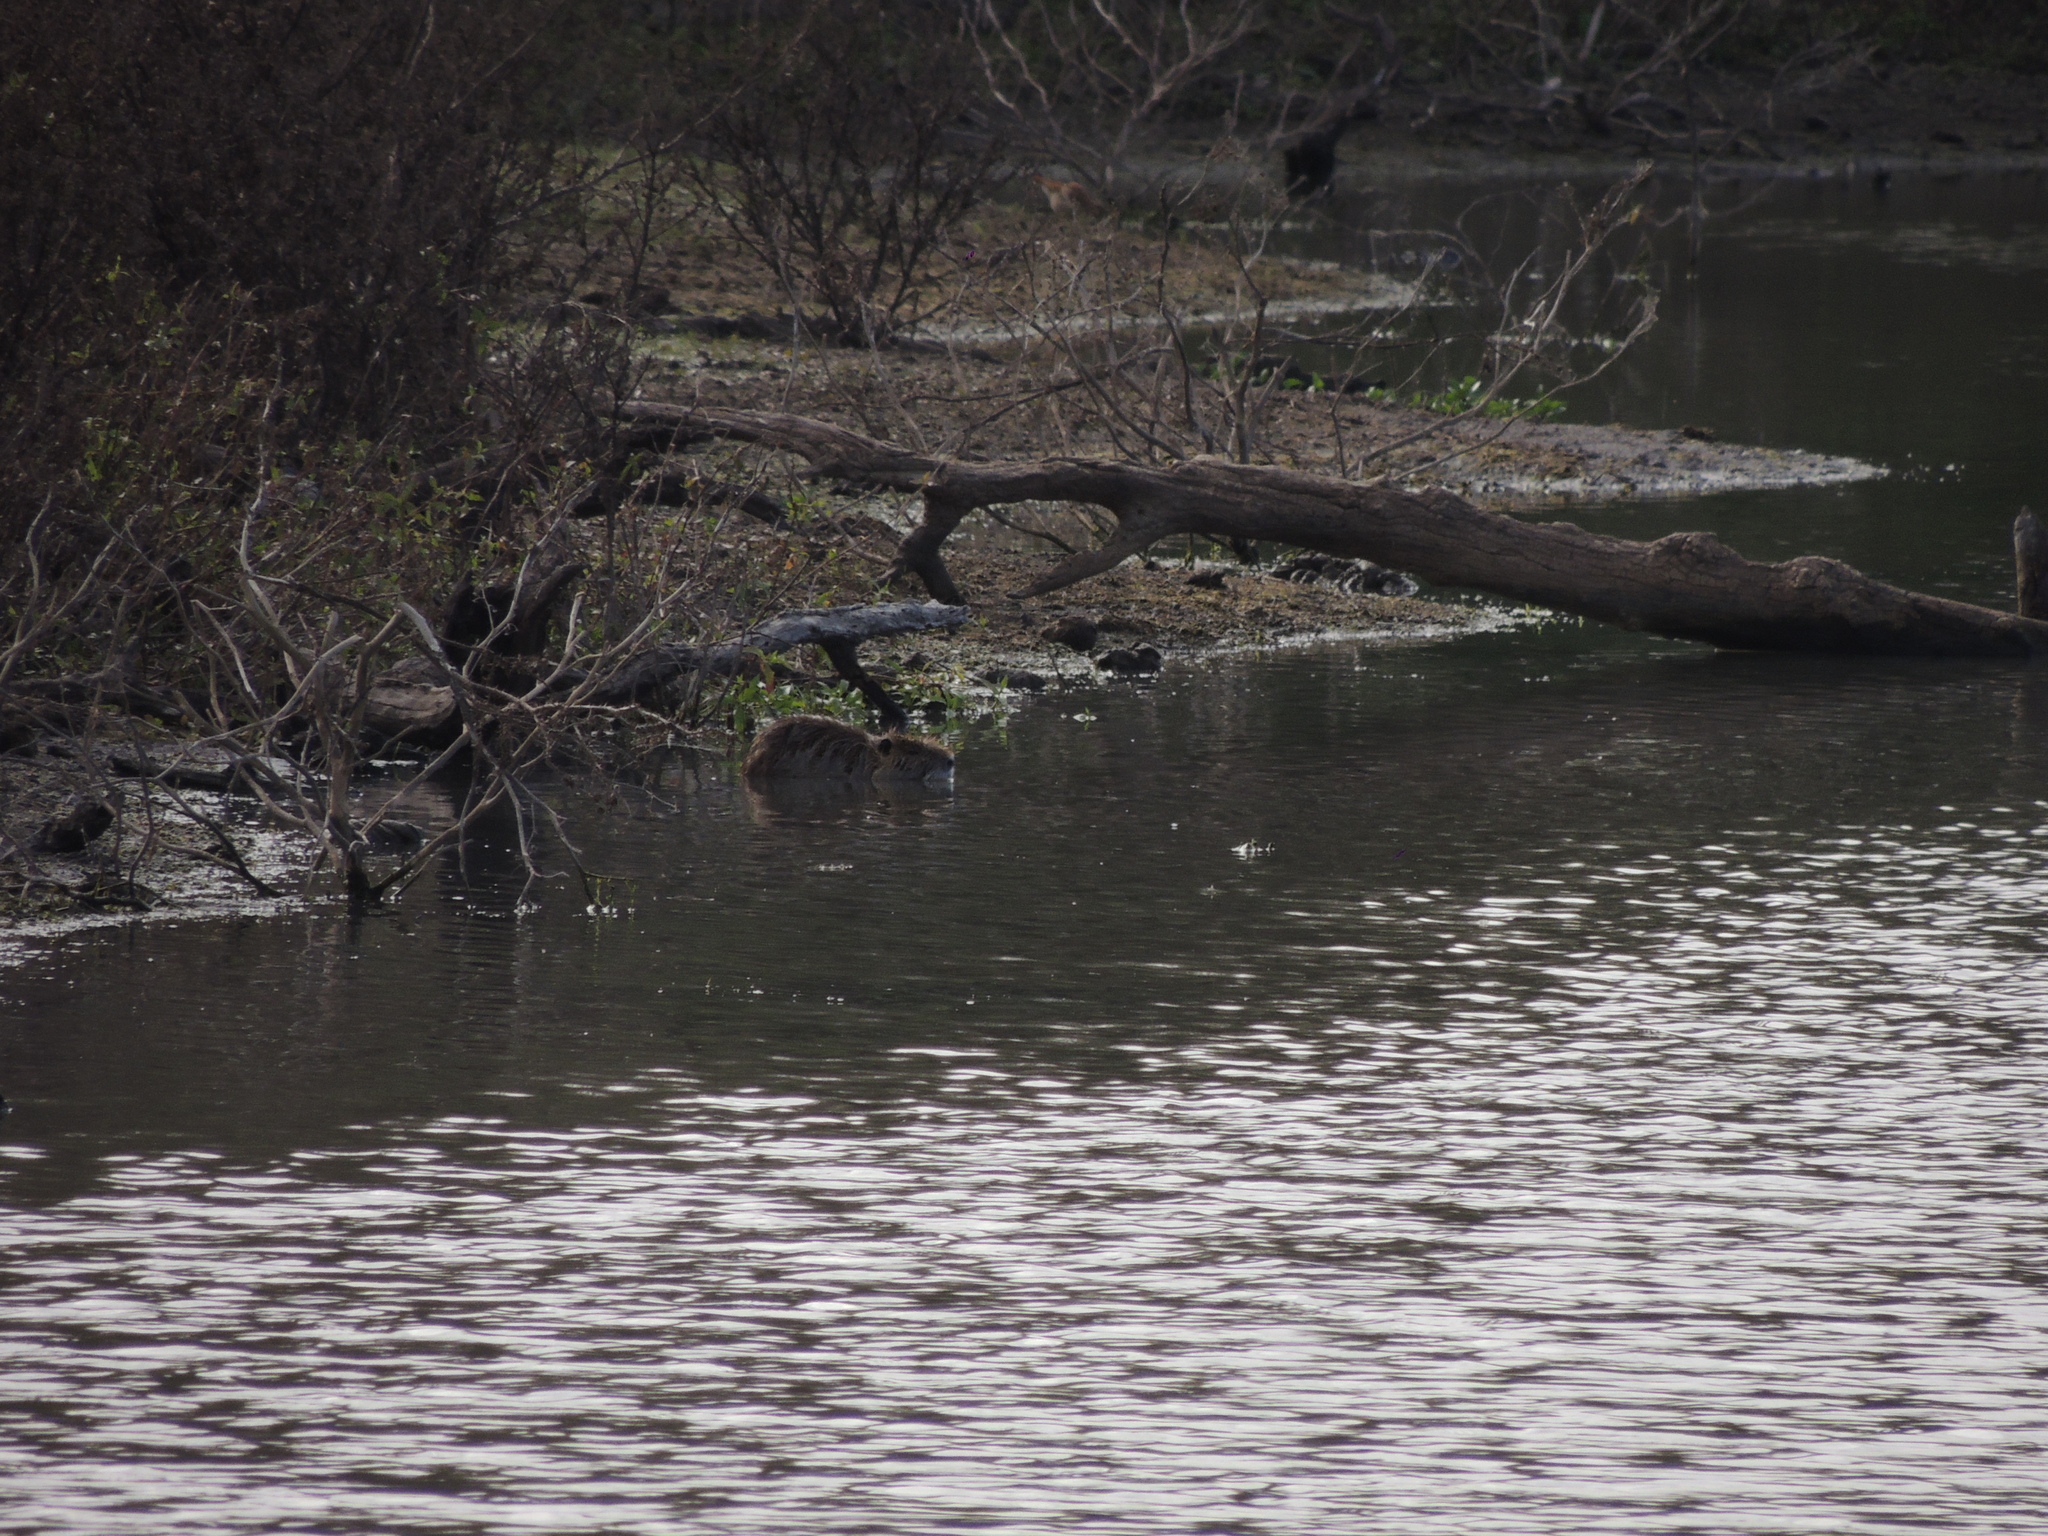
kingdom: Animalia
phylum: Chordata
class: Mammalia
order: Rodentia
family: Myocastoridae
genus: Myocastor
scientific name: Myocastor coypus
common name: Coypu
